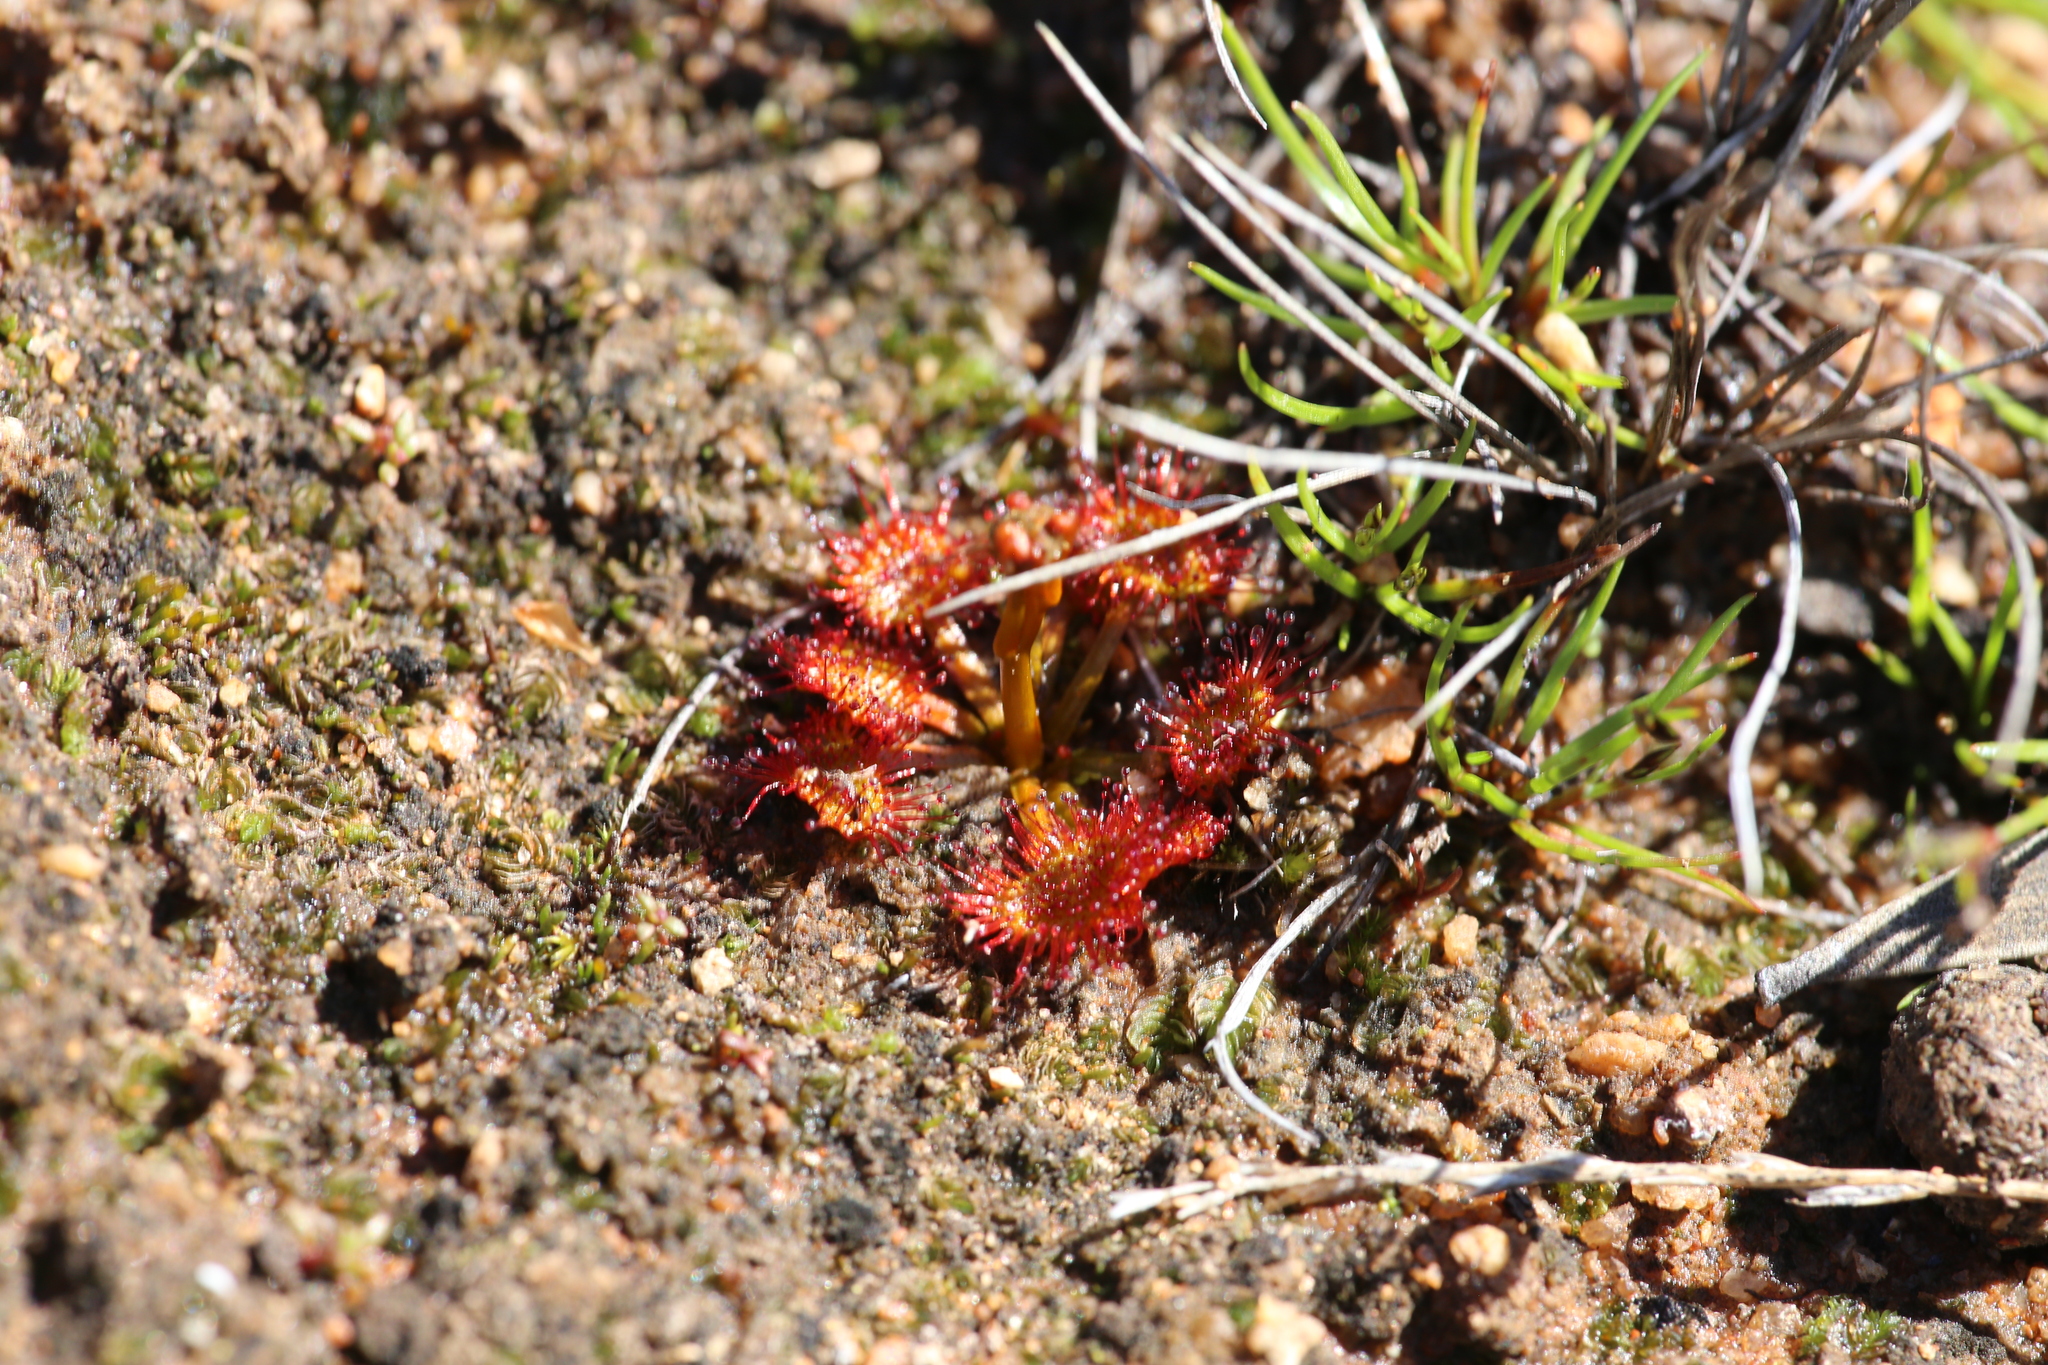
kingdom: Plantae
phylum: Tracheophyta
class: Magnoliopsida
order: Caryophyllales
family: Droseraceae
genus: Drosera
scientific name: Drosera yilgarnensis
